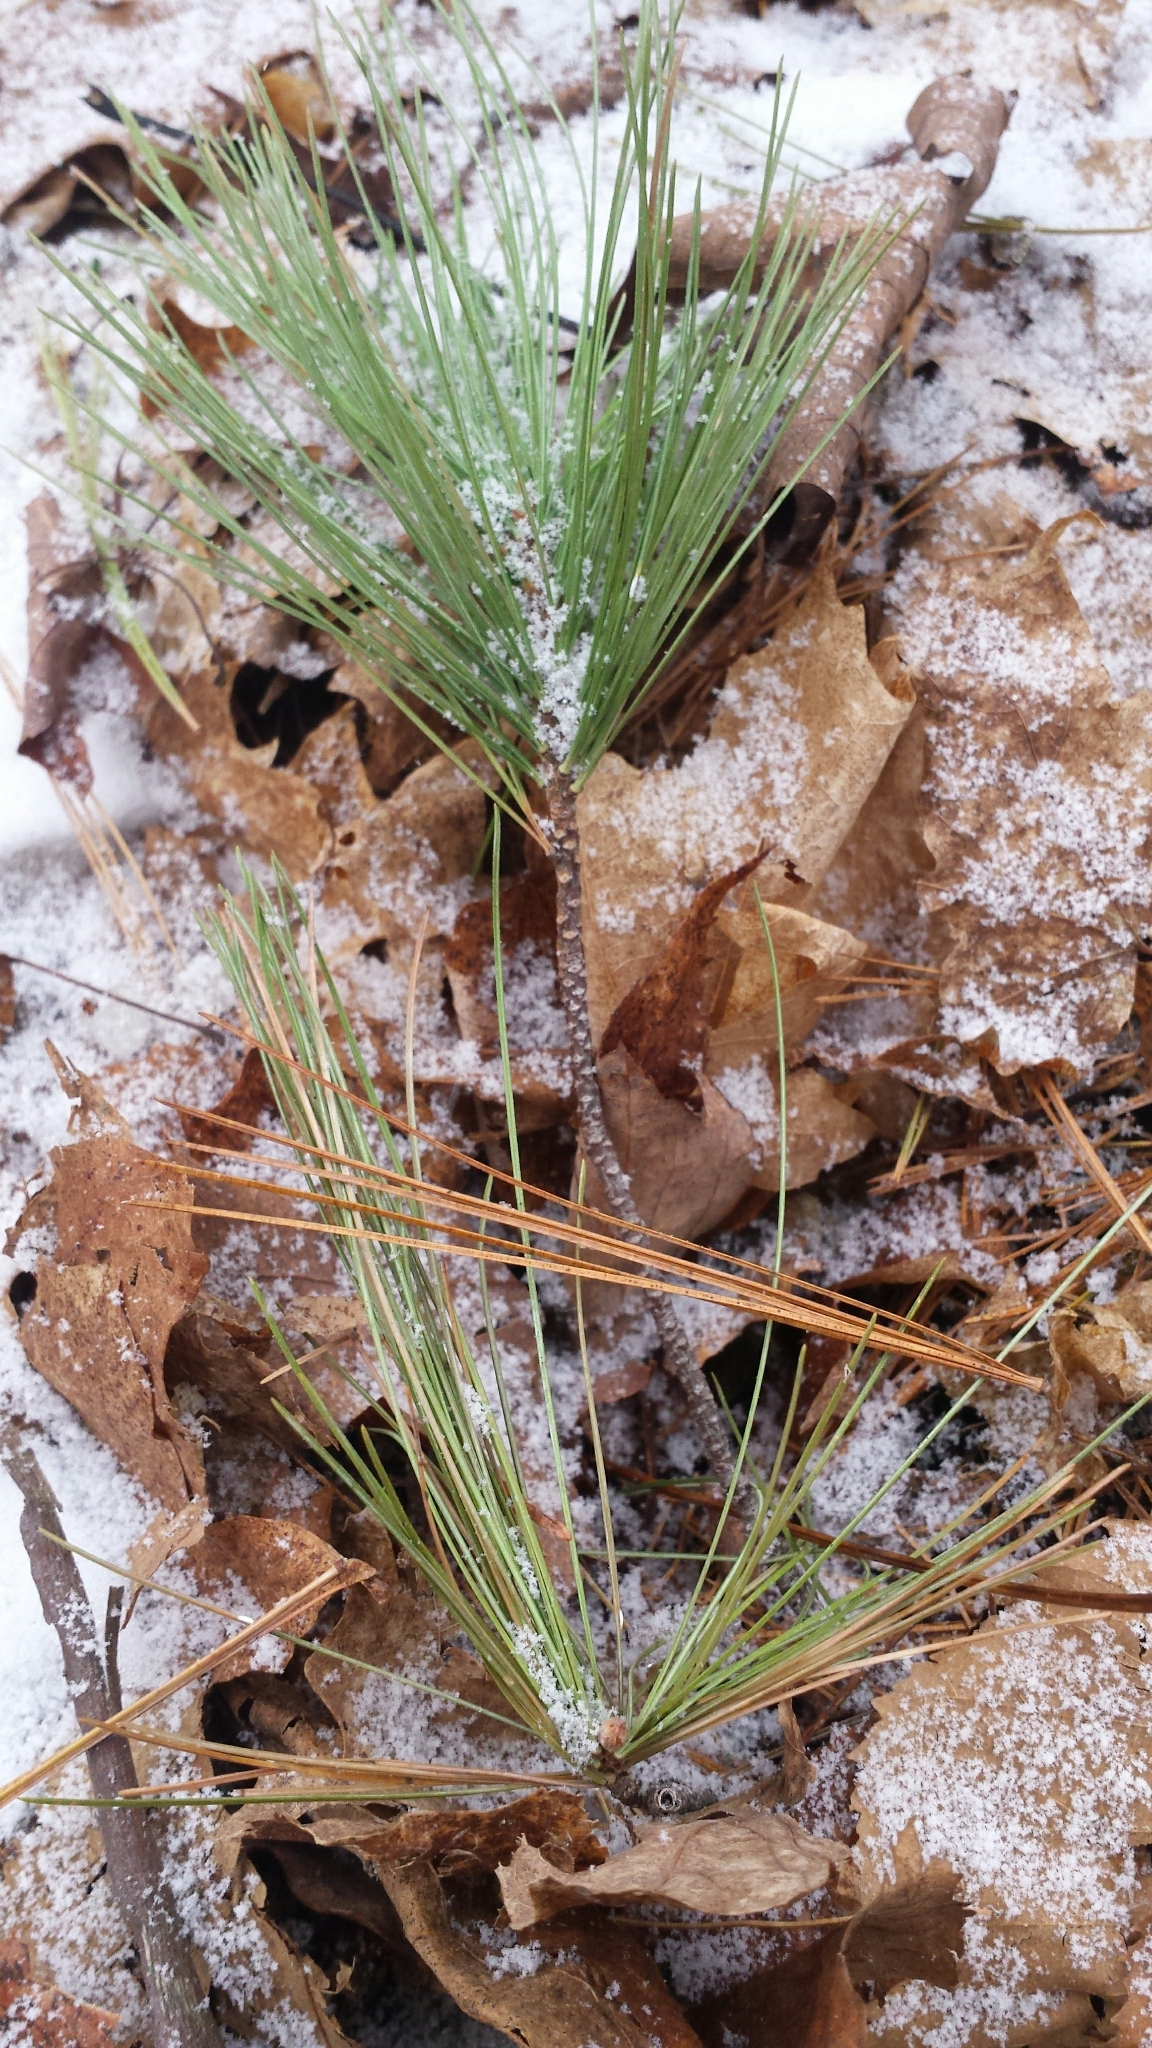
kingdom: Plantae
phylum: Tracheophyta
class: Pinopsida
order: Pinales
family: Pinaceae
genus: Pinus
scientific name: Pinus strobus
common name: Weymouth pine
